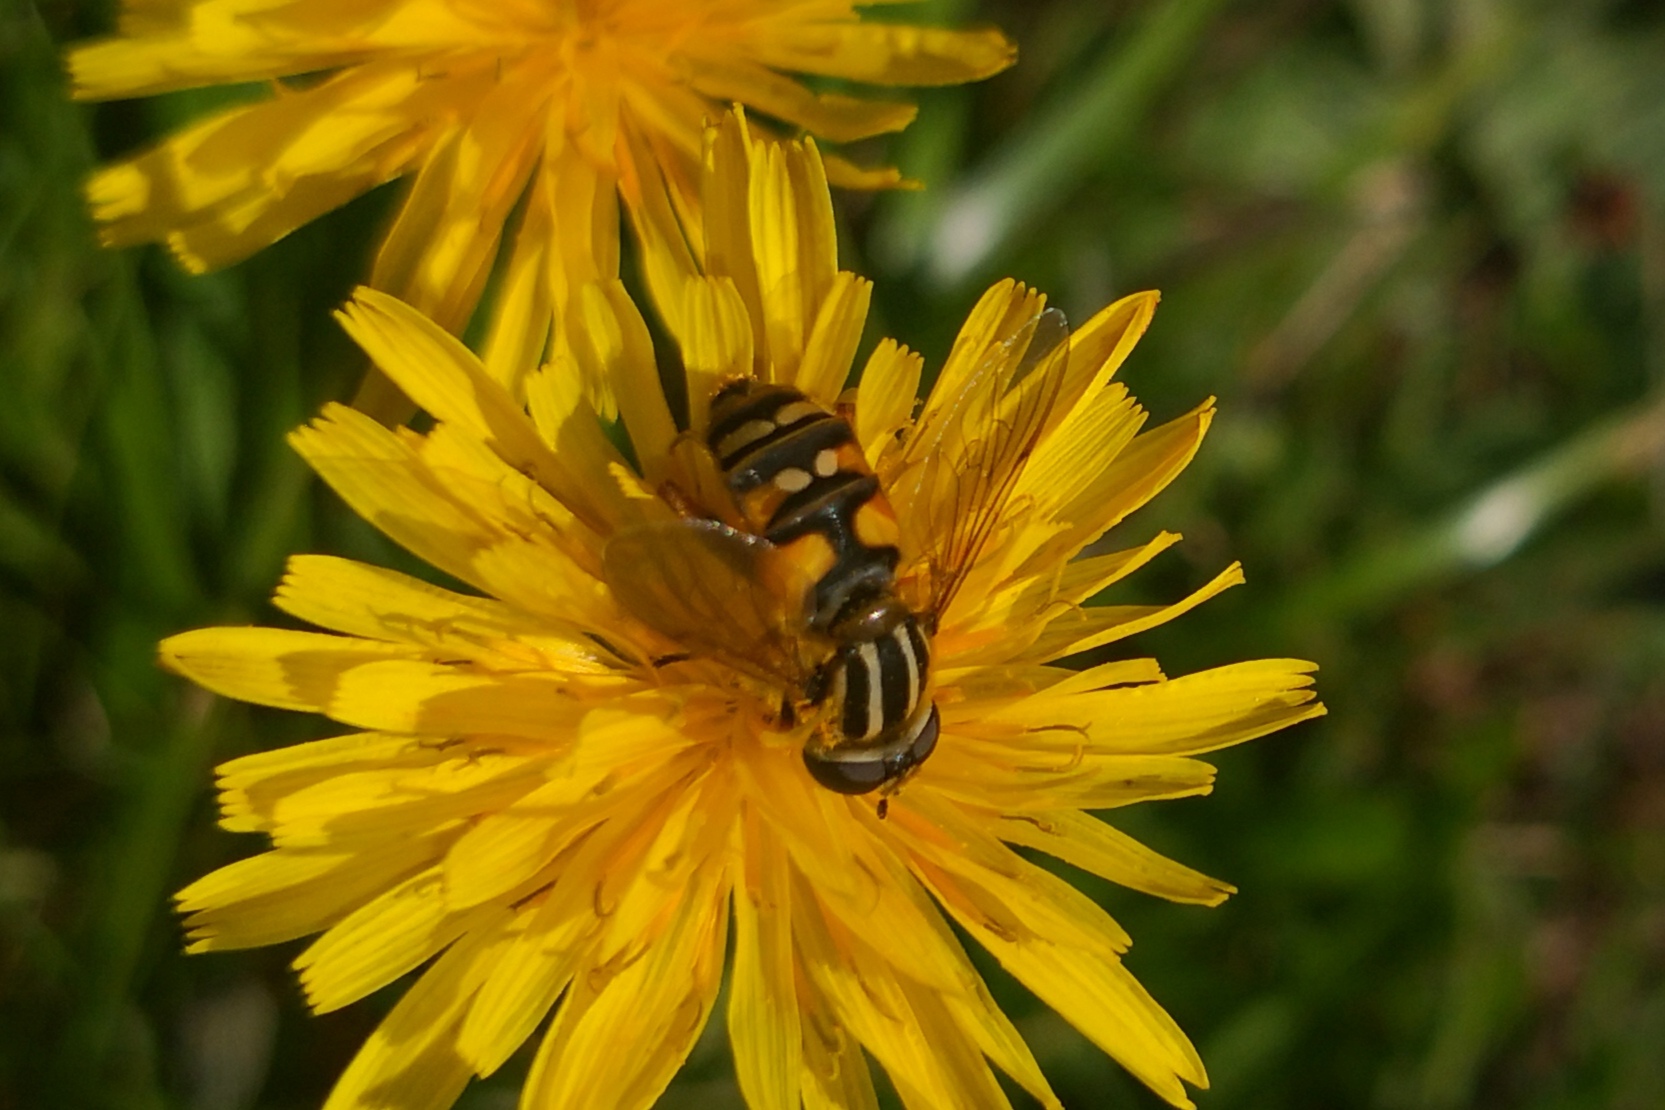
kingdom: Animalia
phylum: Arthropoda
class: Insecta
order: Diptera
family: Syrphidae
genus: Helophilus
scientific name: Helophilus pendulus
